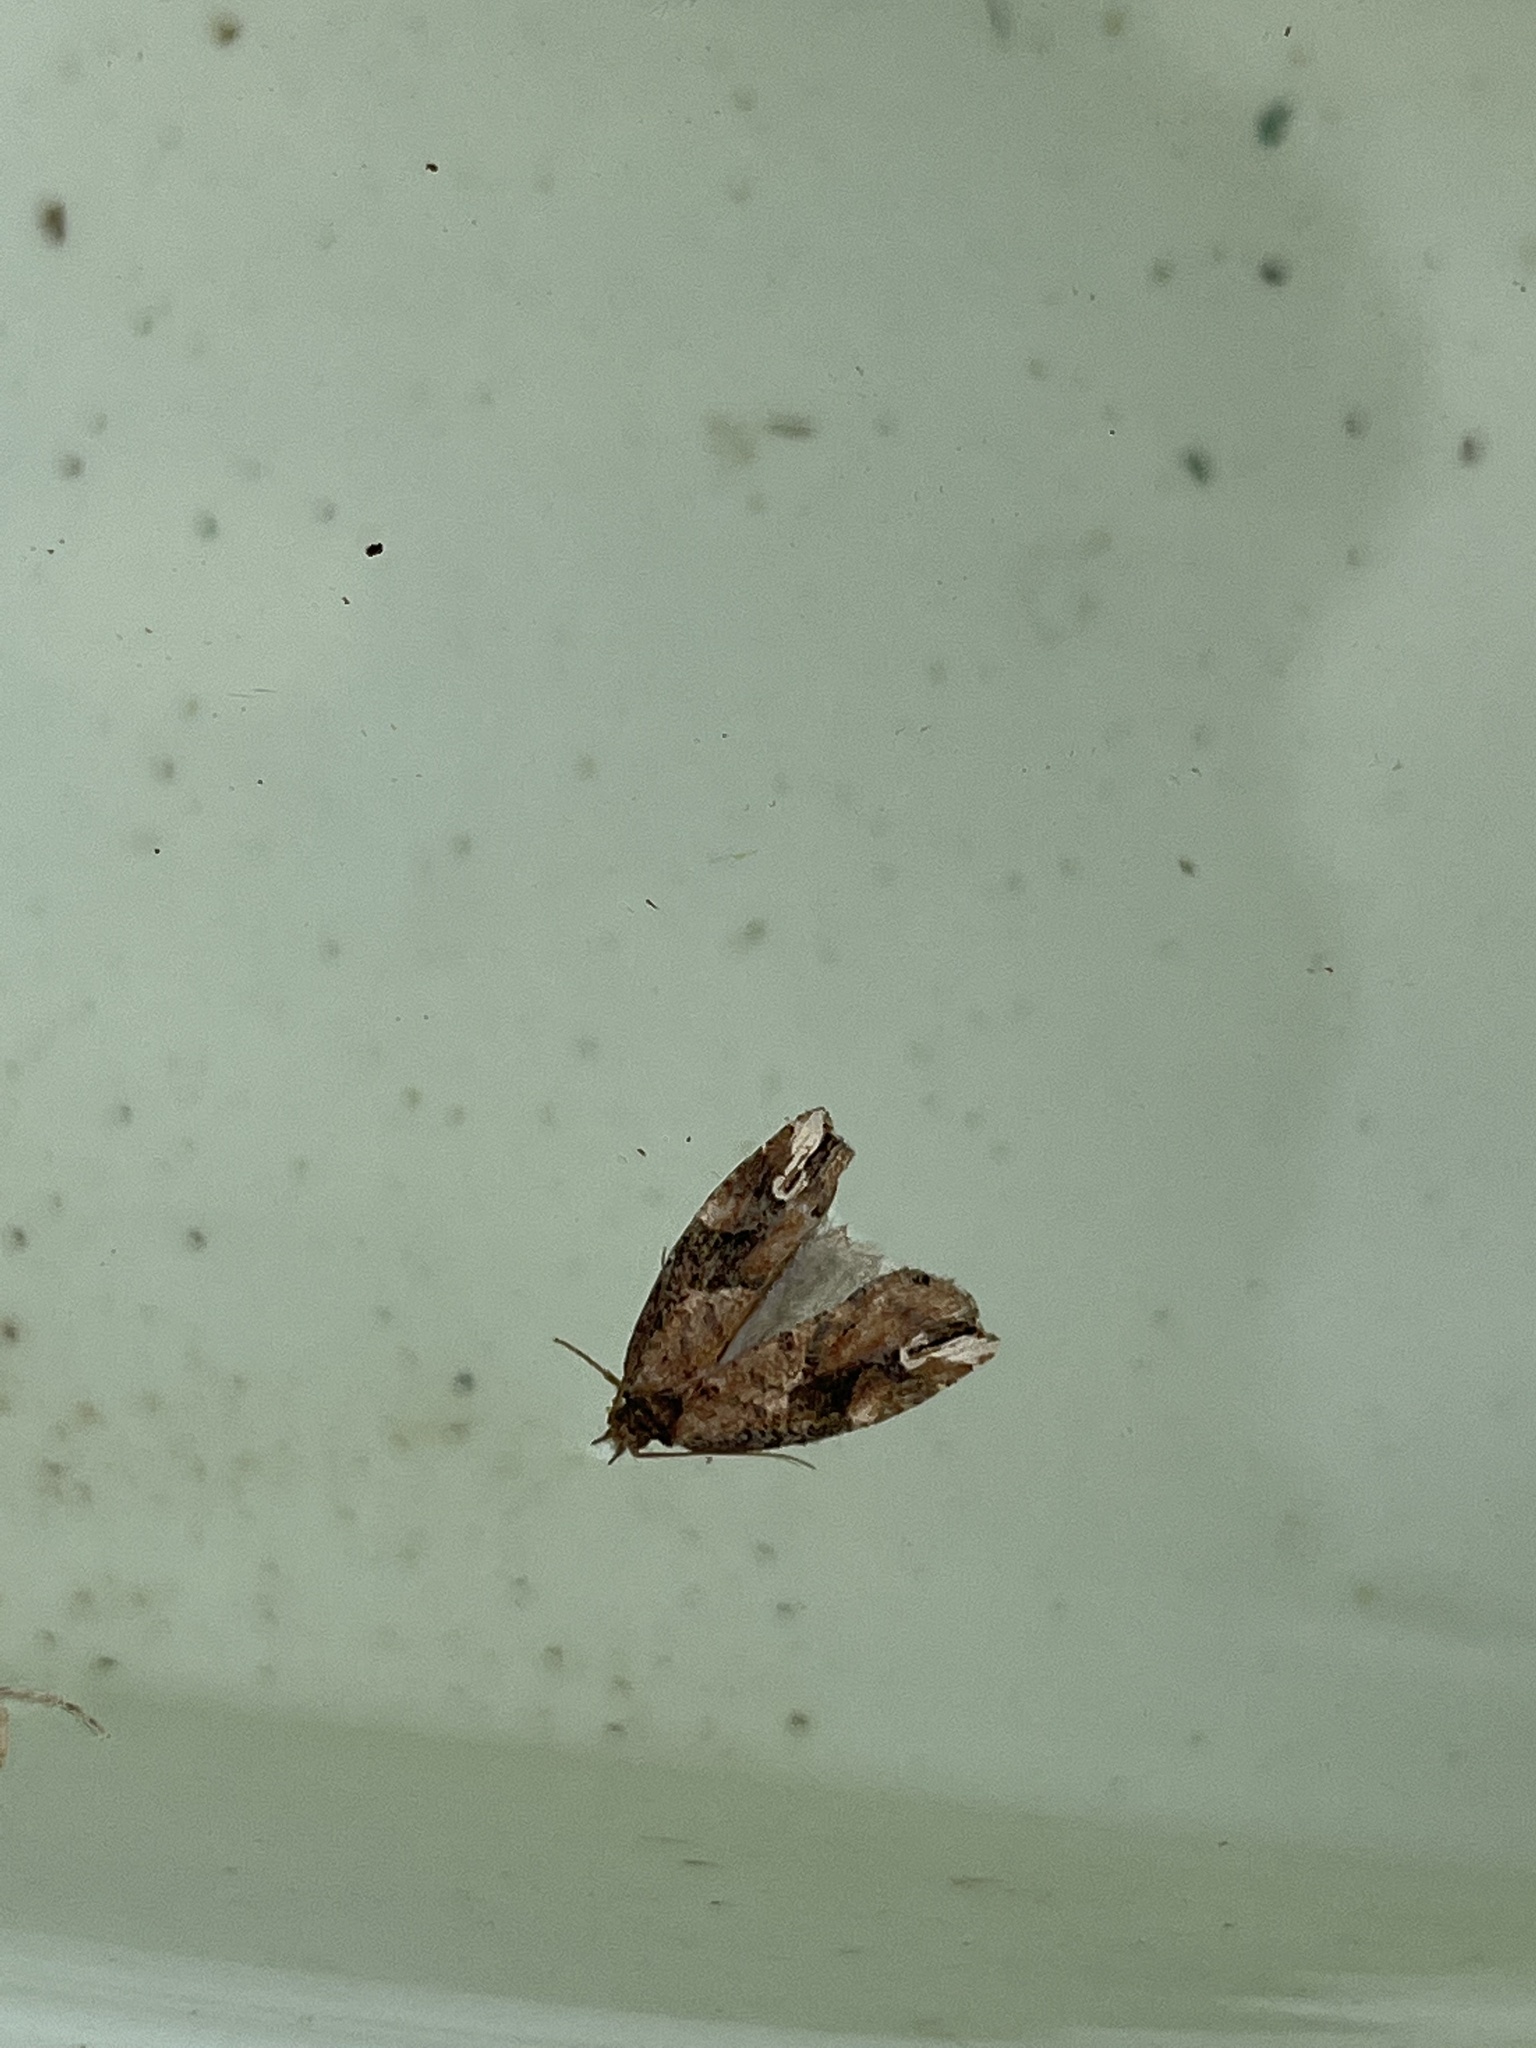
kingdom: Animalia
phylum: Arthropoda
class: Insecta
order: Lepidoptera
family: Tortricidae
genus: Epalxiphora
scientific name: Epalxiphora axenana
